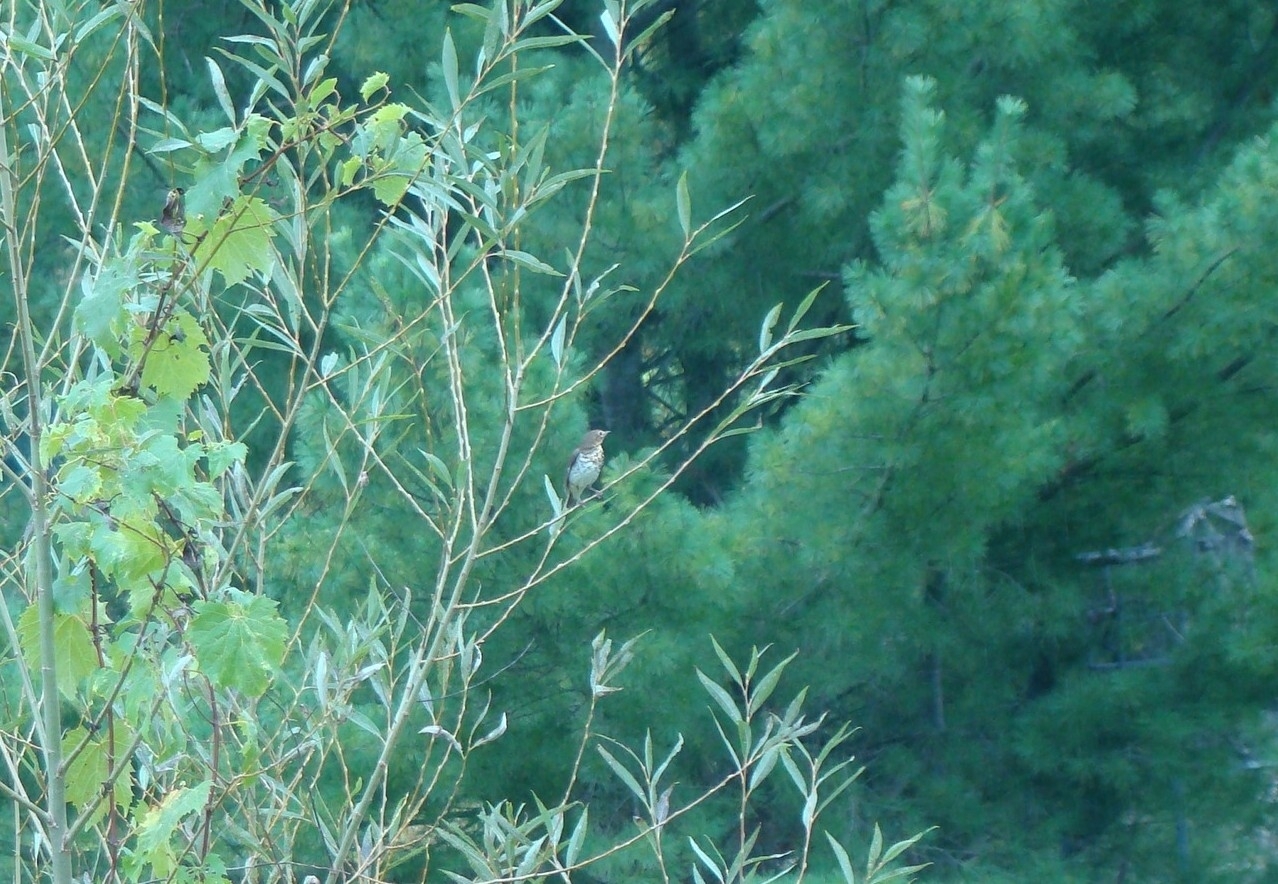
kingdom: Animalia
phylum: Chordata
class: Aves
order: Passeriformes
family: Turdidae
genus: Catharus
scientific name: Catharus ustulatus
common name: Swainson's thrush
